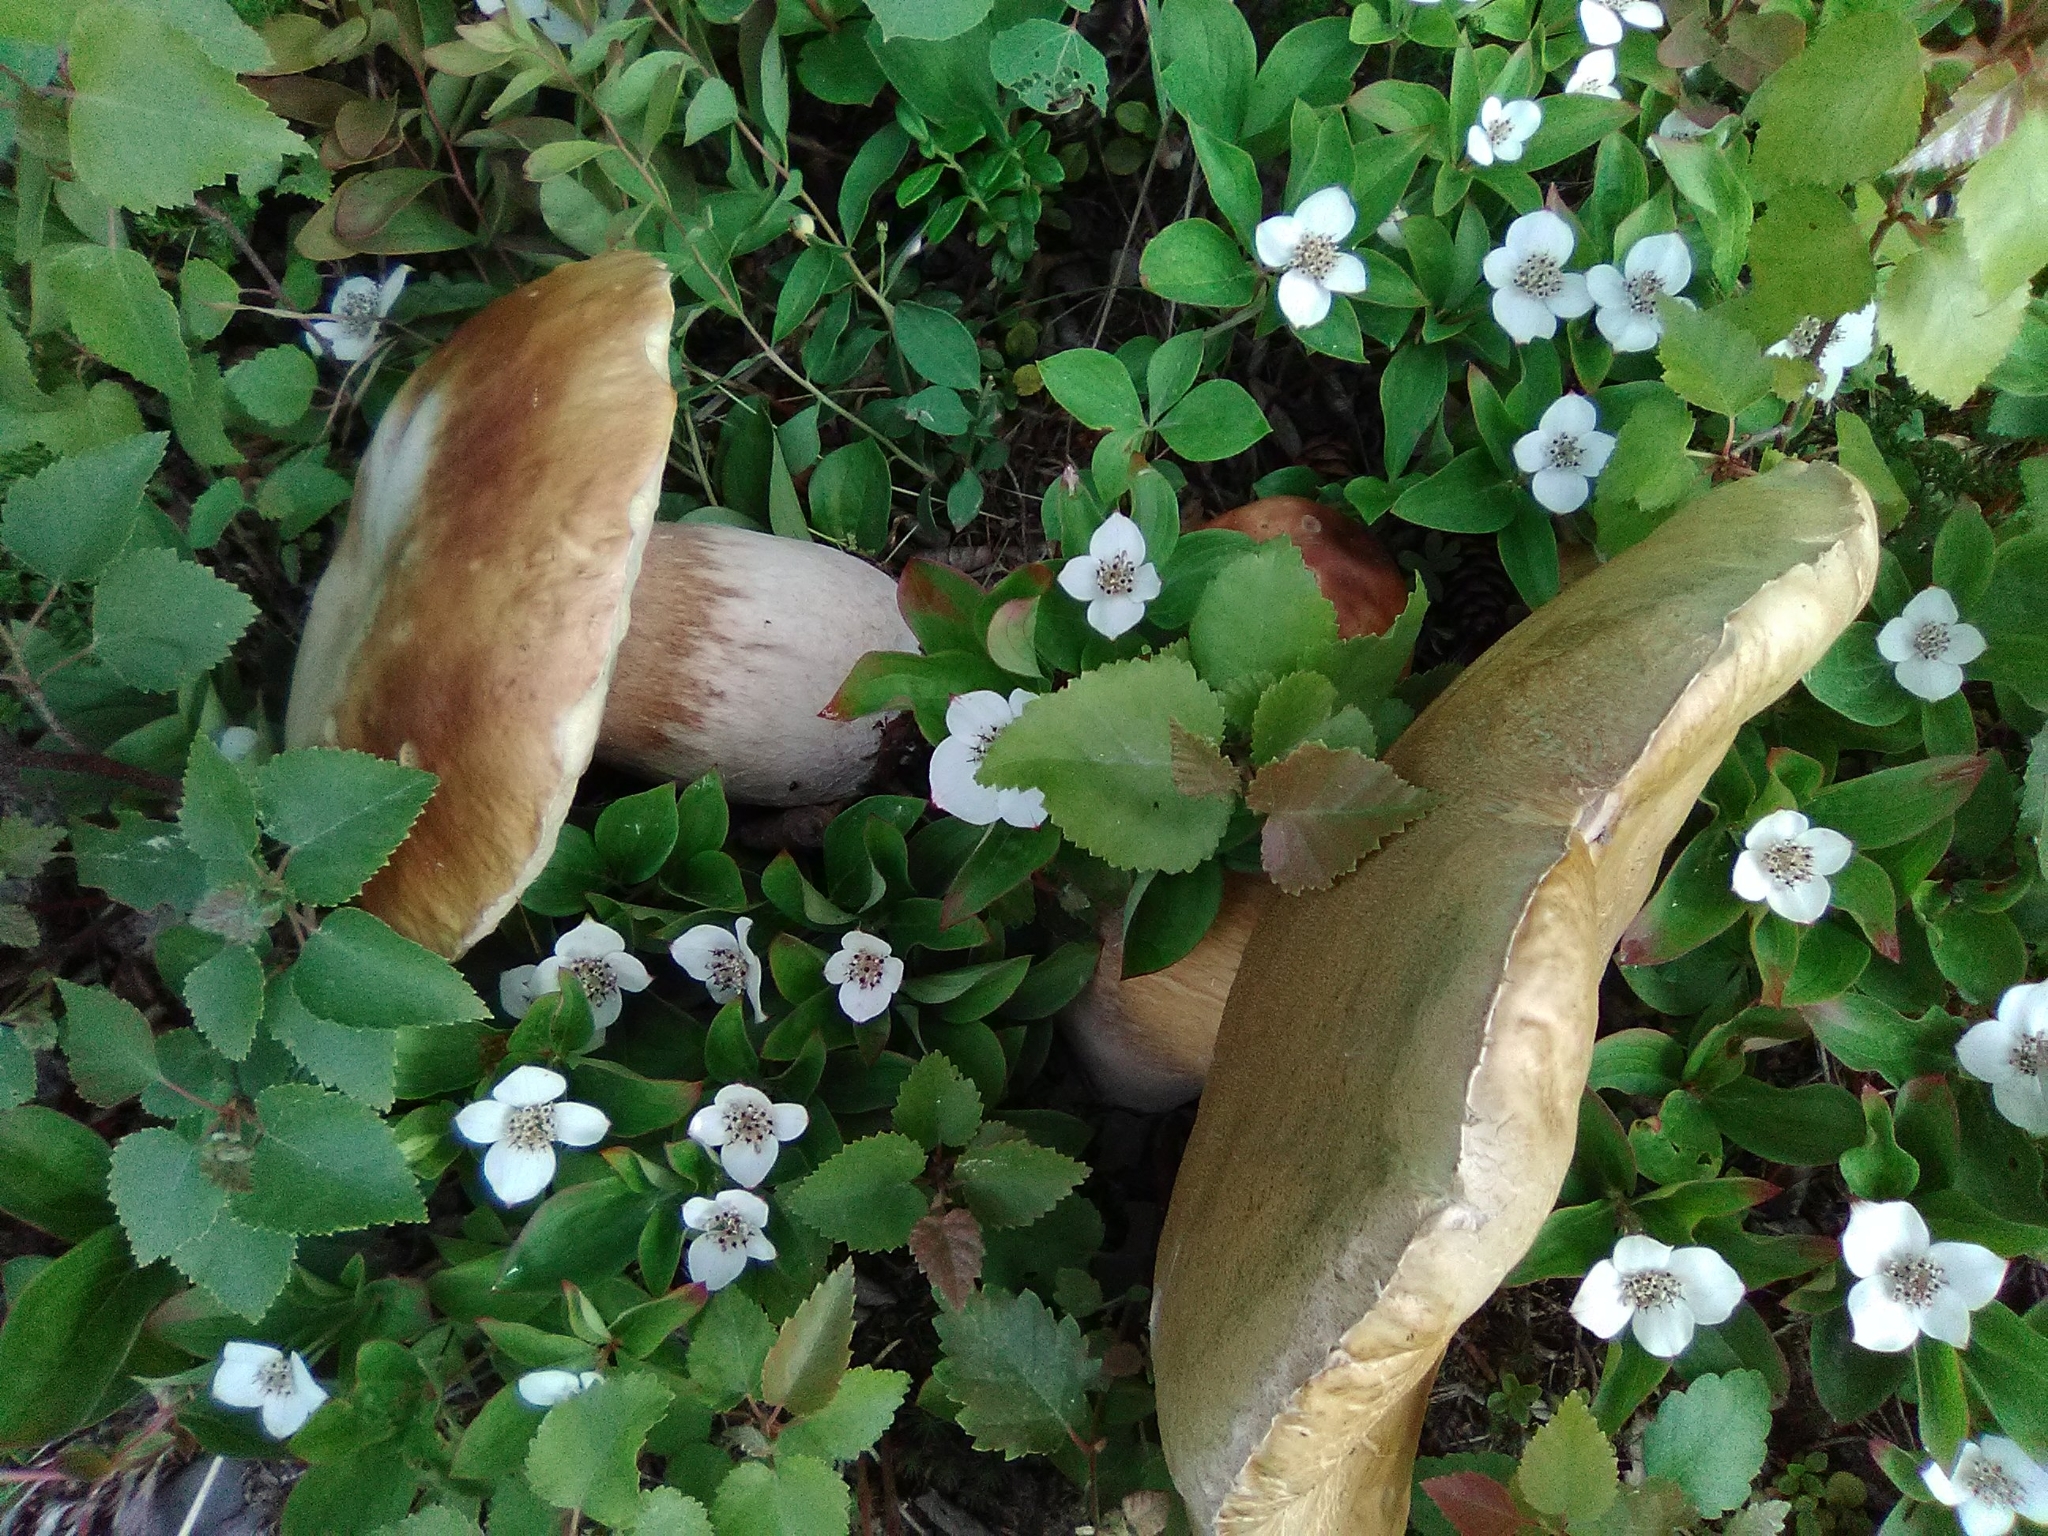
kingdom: Fungi
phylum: Basidiomycota
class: Agaricomycetes
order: Boletales
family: Boletaceae
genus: Boletus
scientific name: Boletus edulis
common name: Cep
